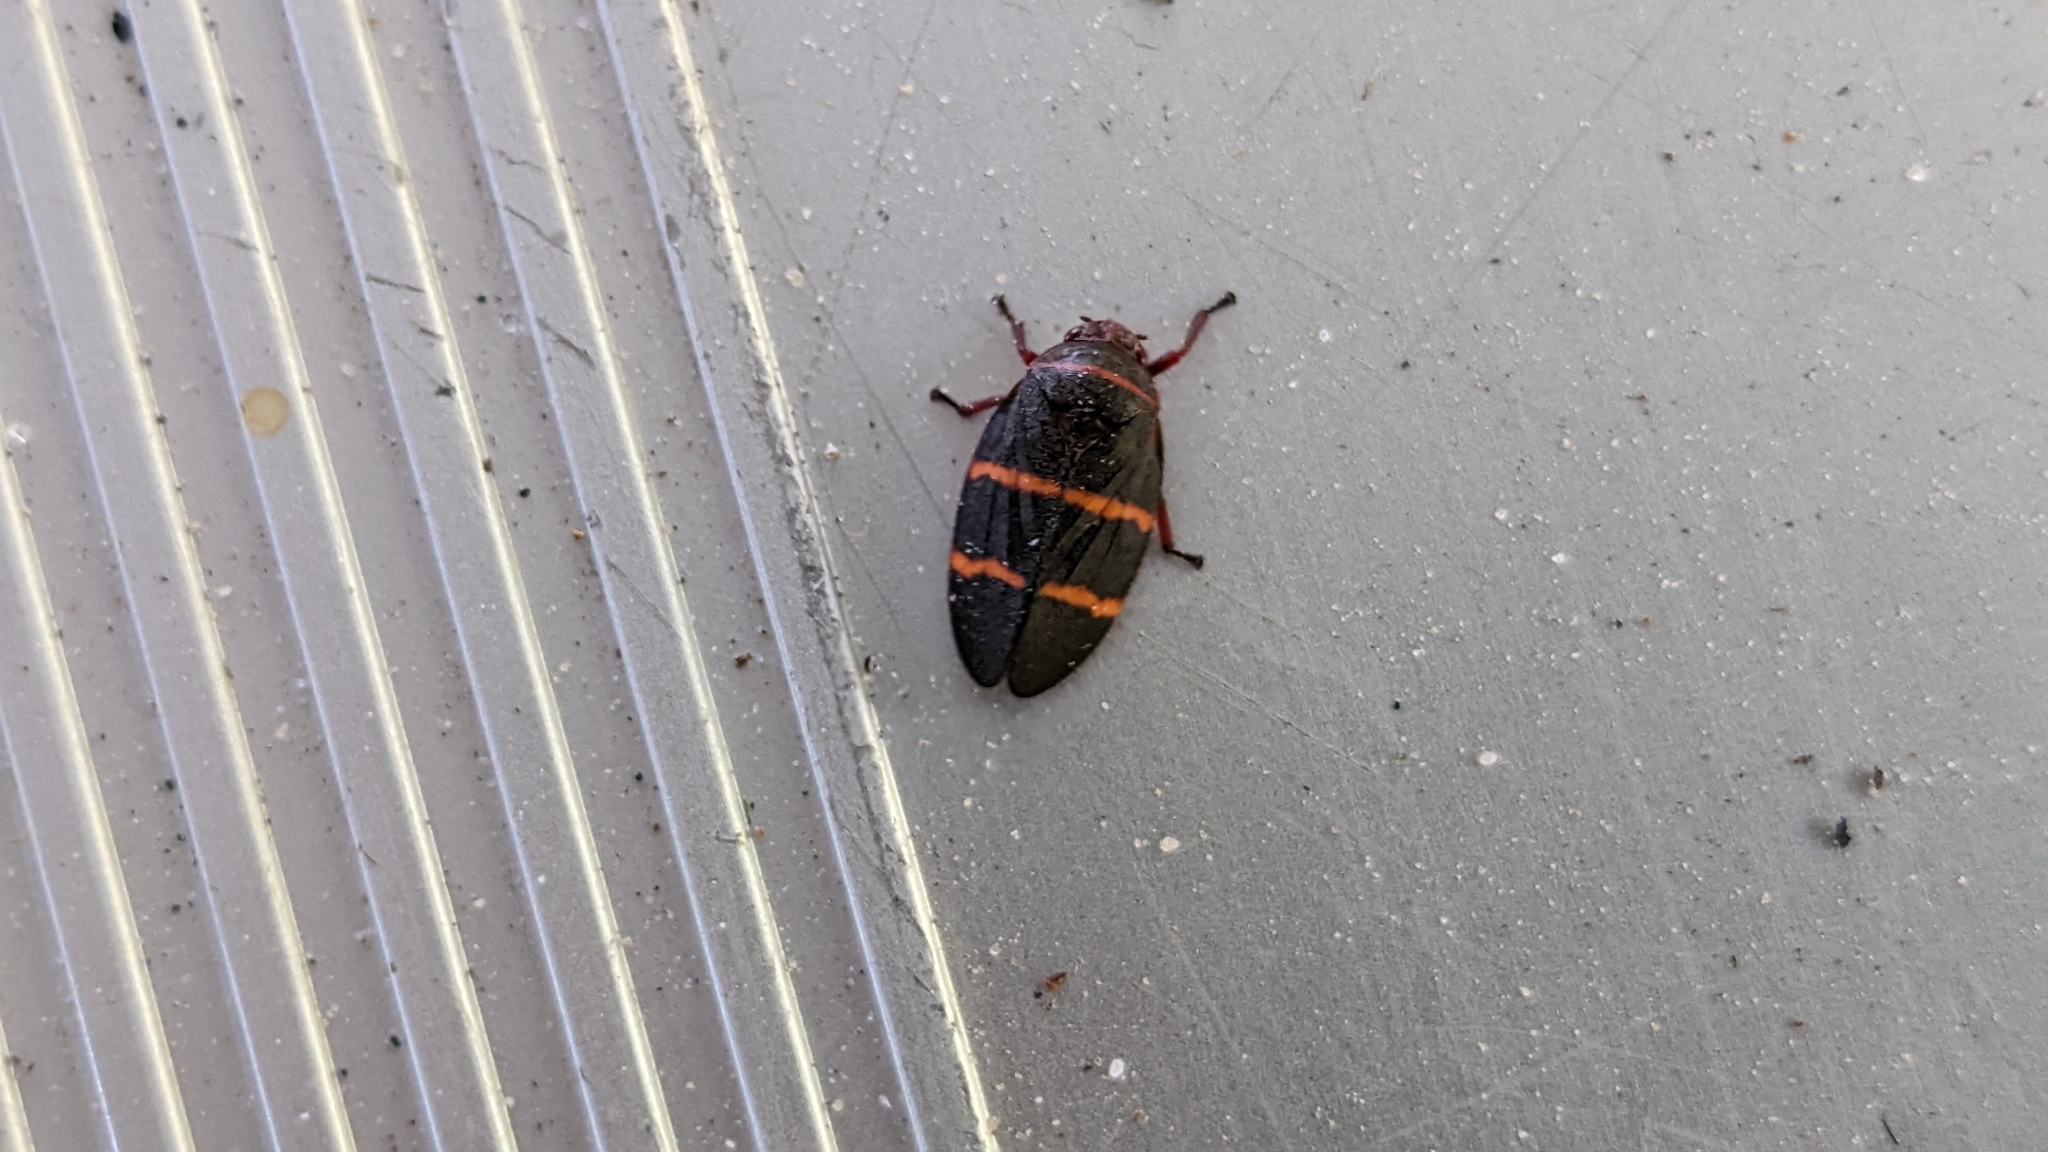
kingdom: Animalia
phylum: Arthropoda
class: Insecta
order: Hemiptera
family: Cercopidae
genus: Prosapia
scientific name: Prosapia bicincta
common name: Twolined spittlebug
